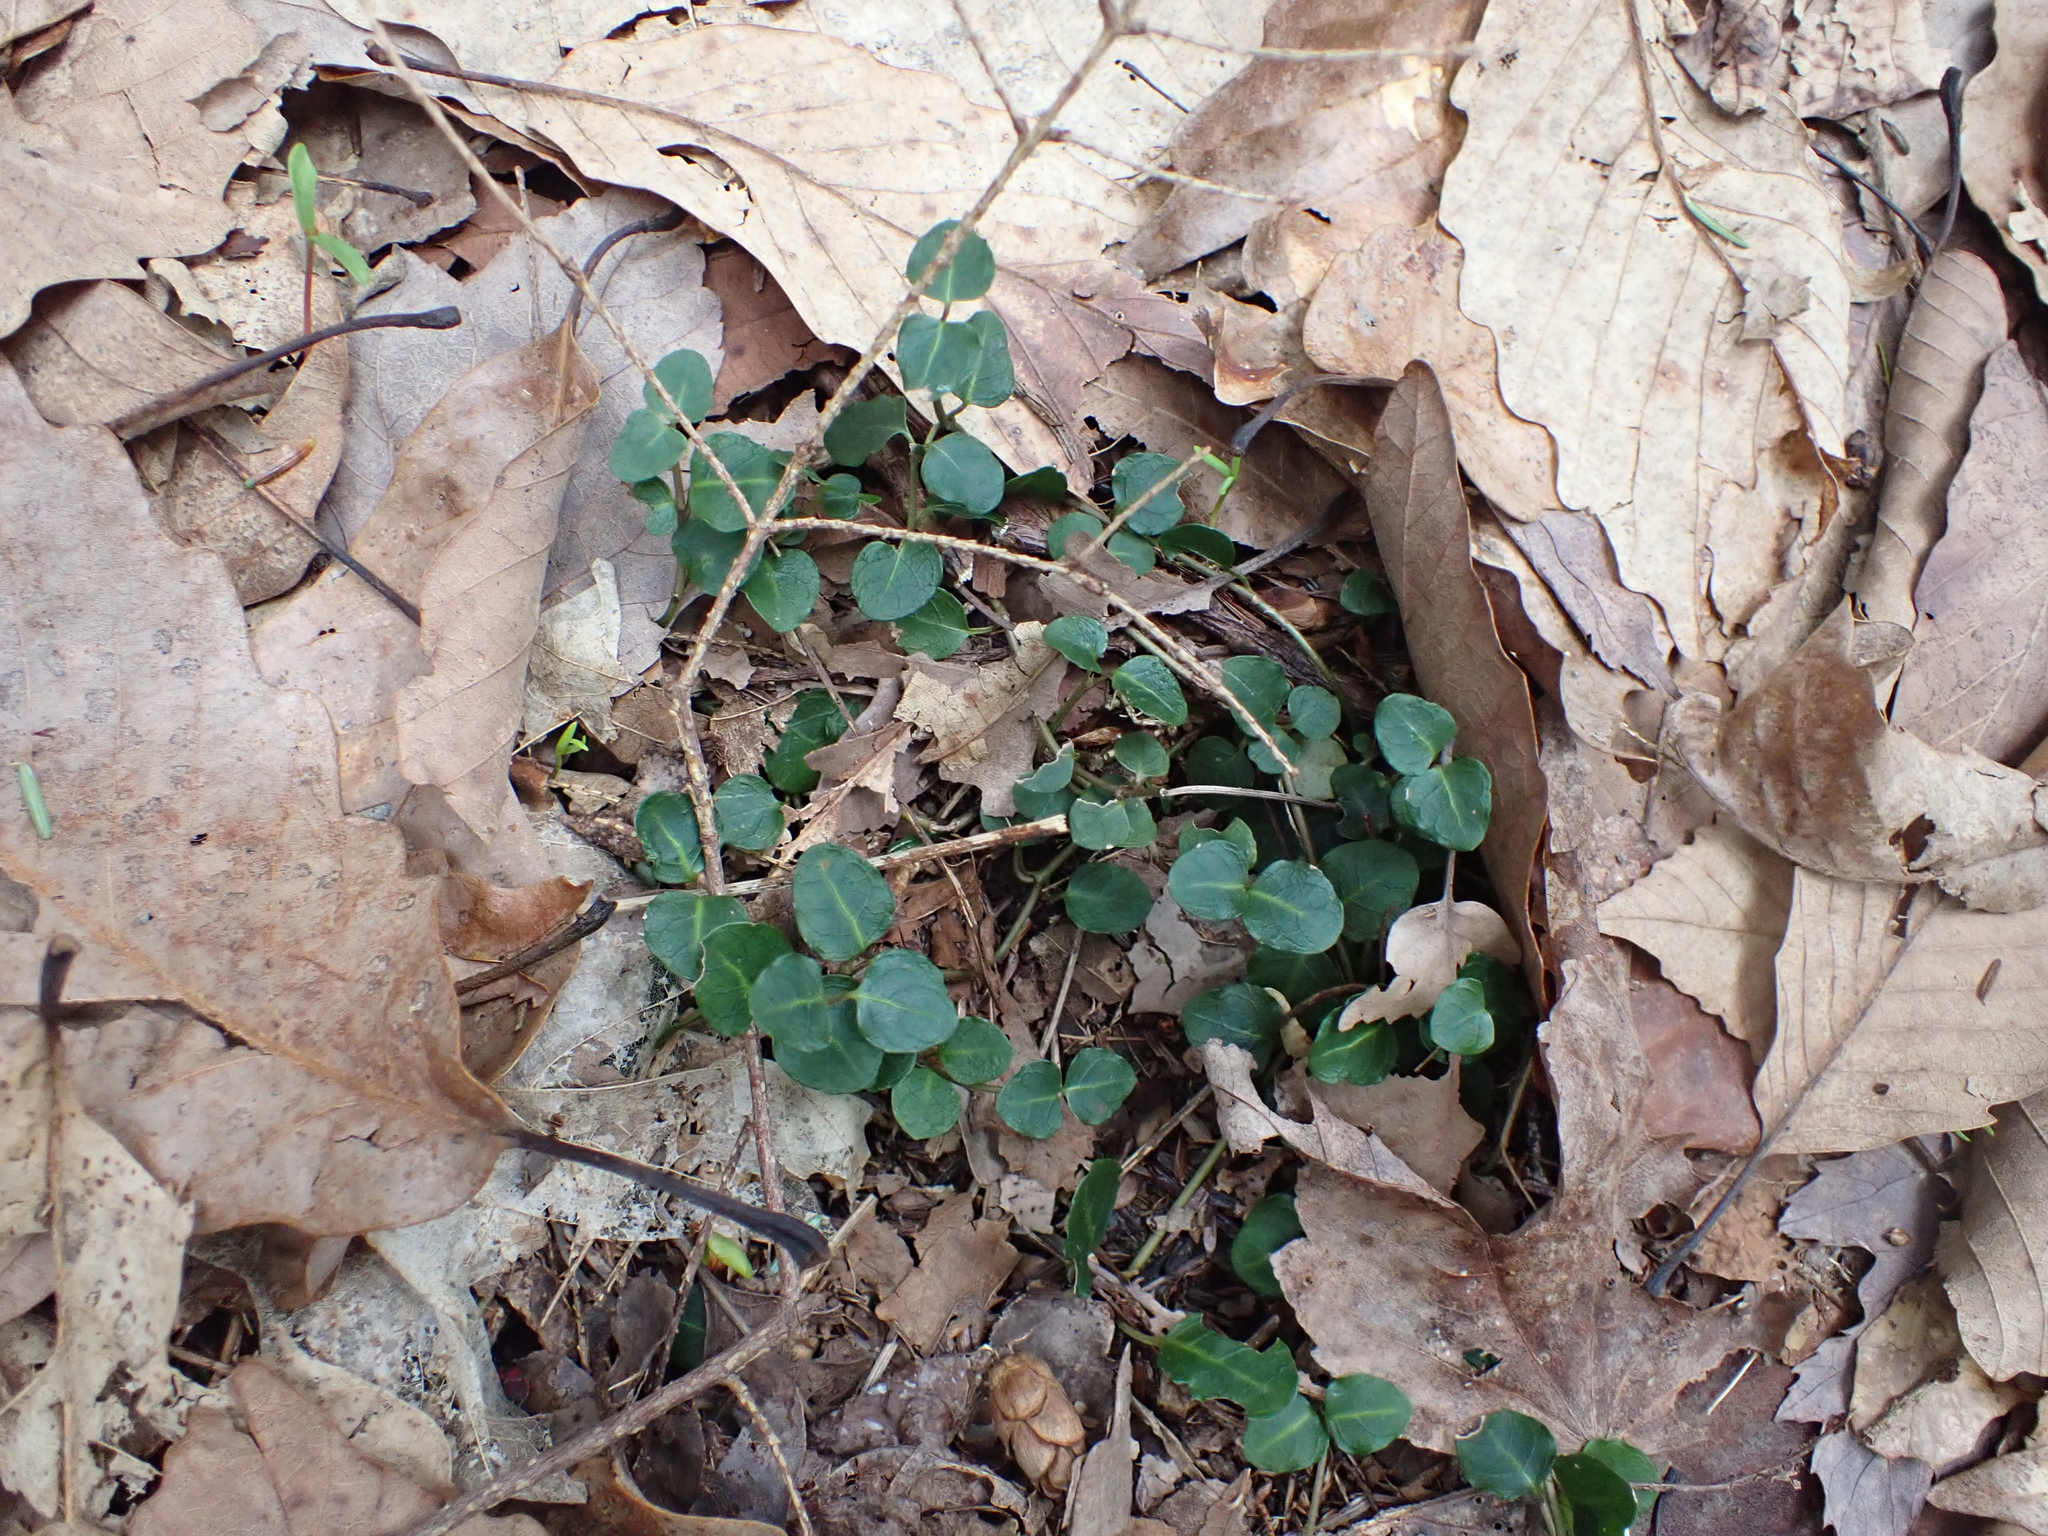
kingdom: Plantae
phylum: Tracheophyta
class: Magnoliopsida
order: Gentianales
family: Rubiaceae
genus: Mitchella
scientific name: Mitchella repens
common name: Partridge-berry
